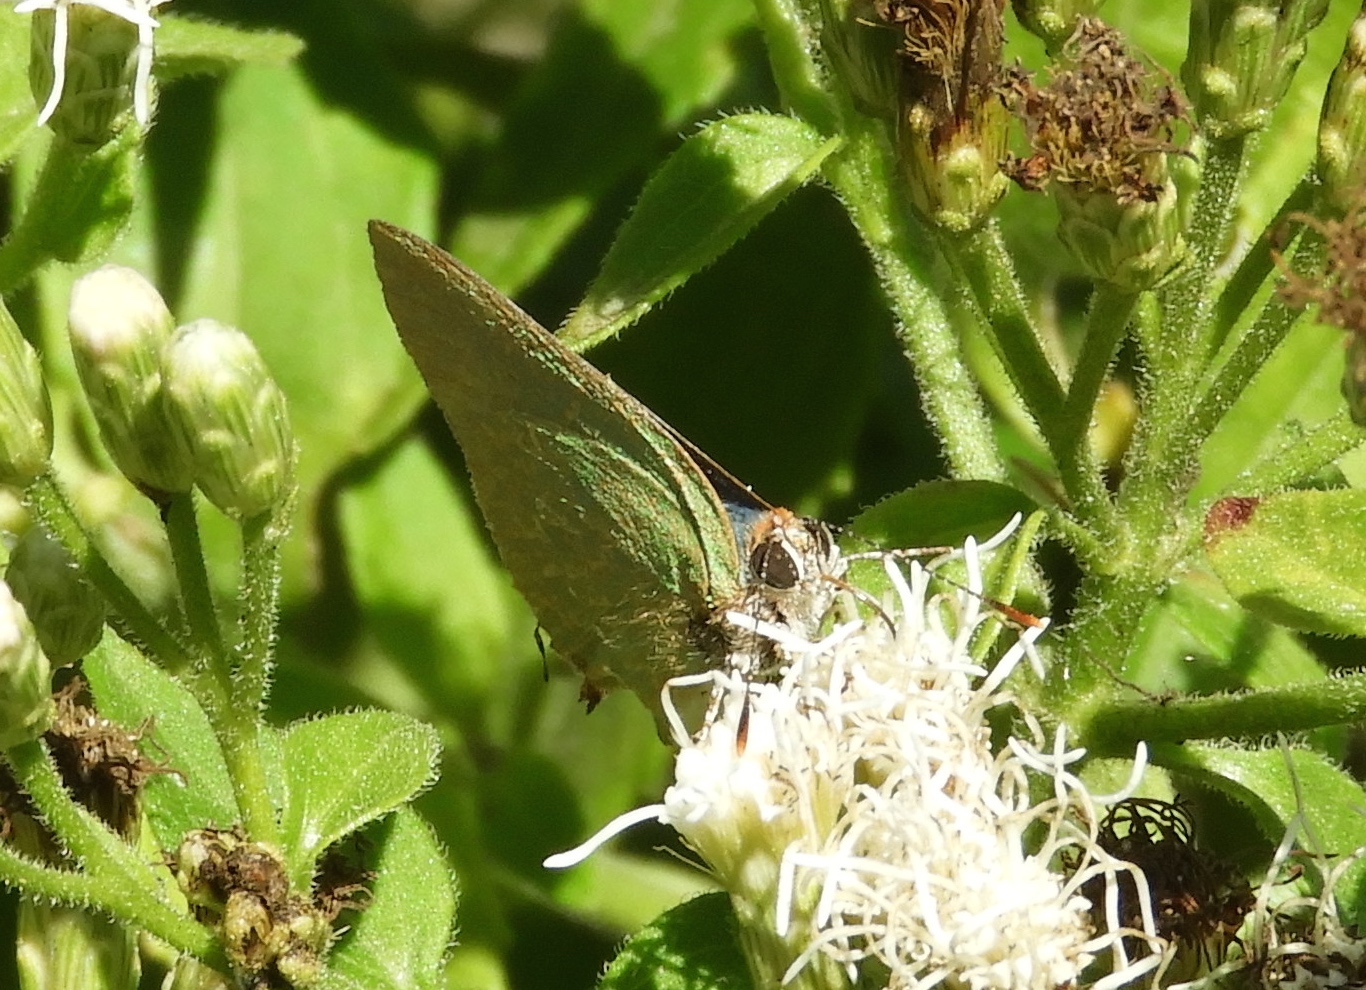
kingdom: Animalia
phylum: Arthropoda
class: Insecta
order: Lepidoptera
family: Lycaenidae
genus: Cyanophrys
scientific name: Cyanophrys
